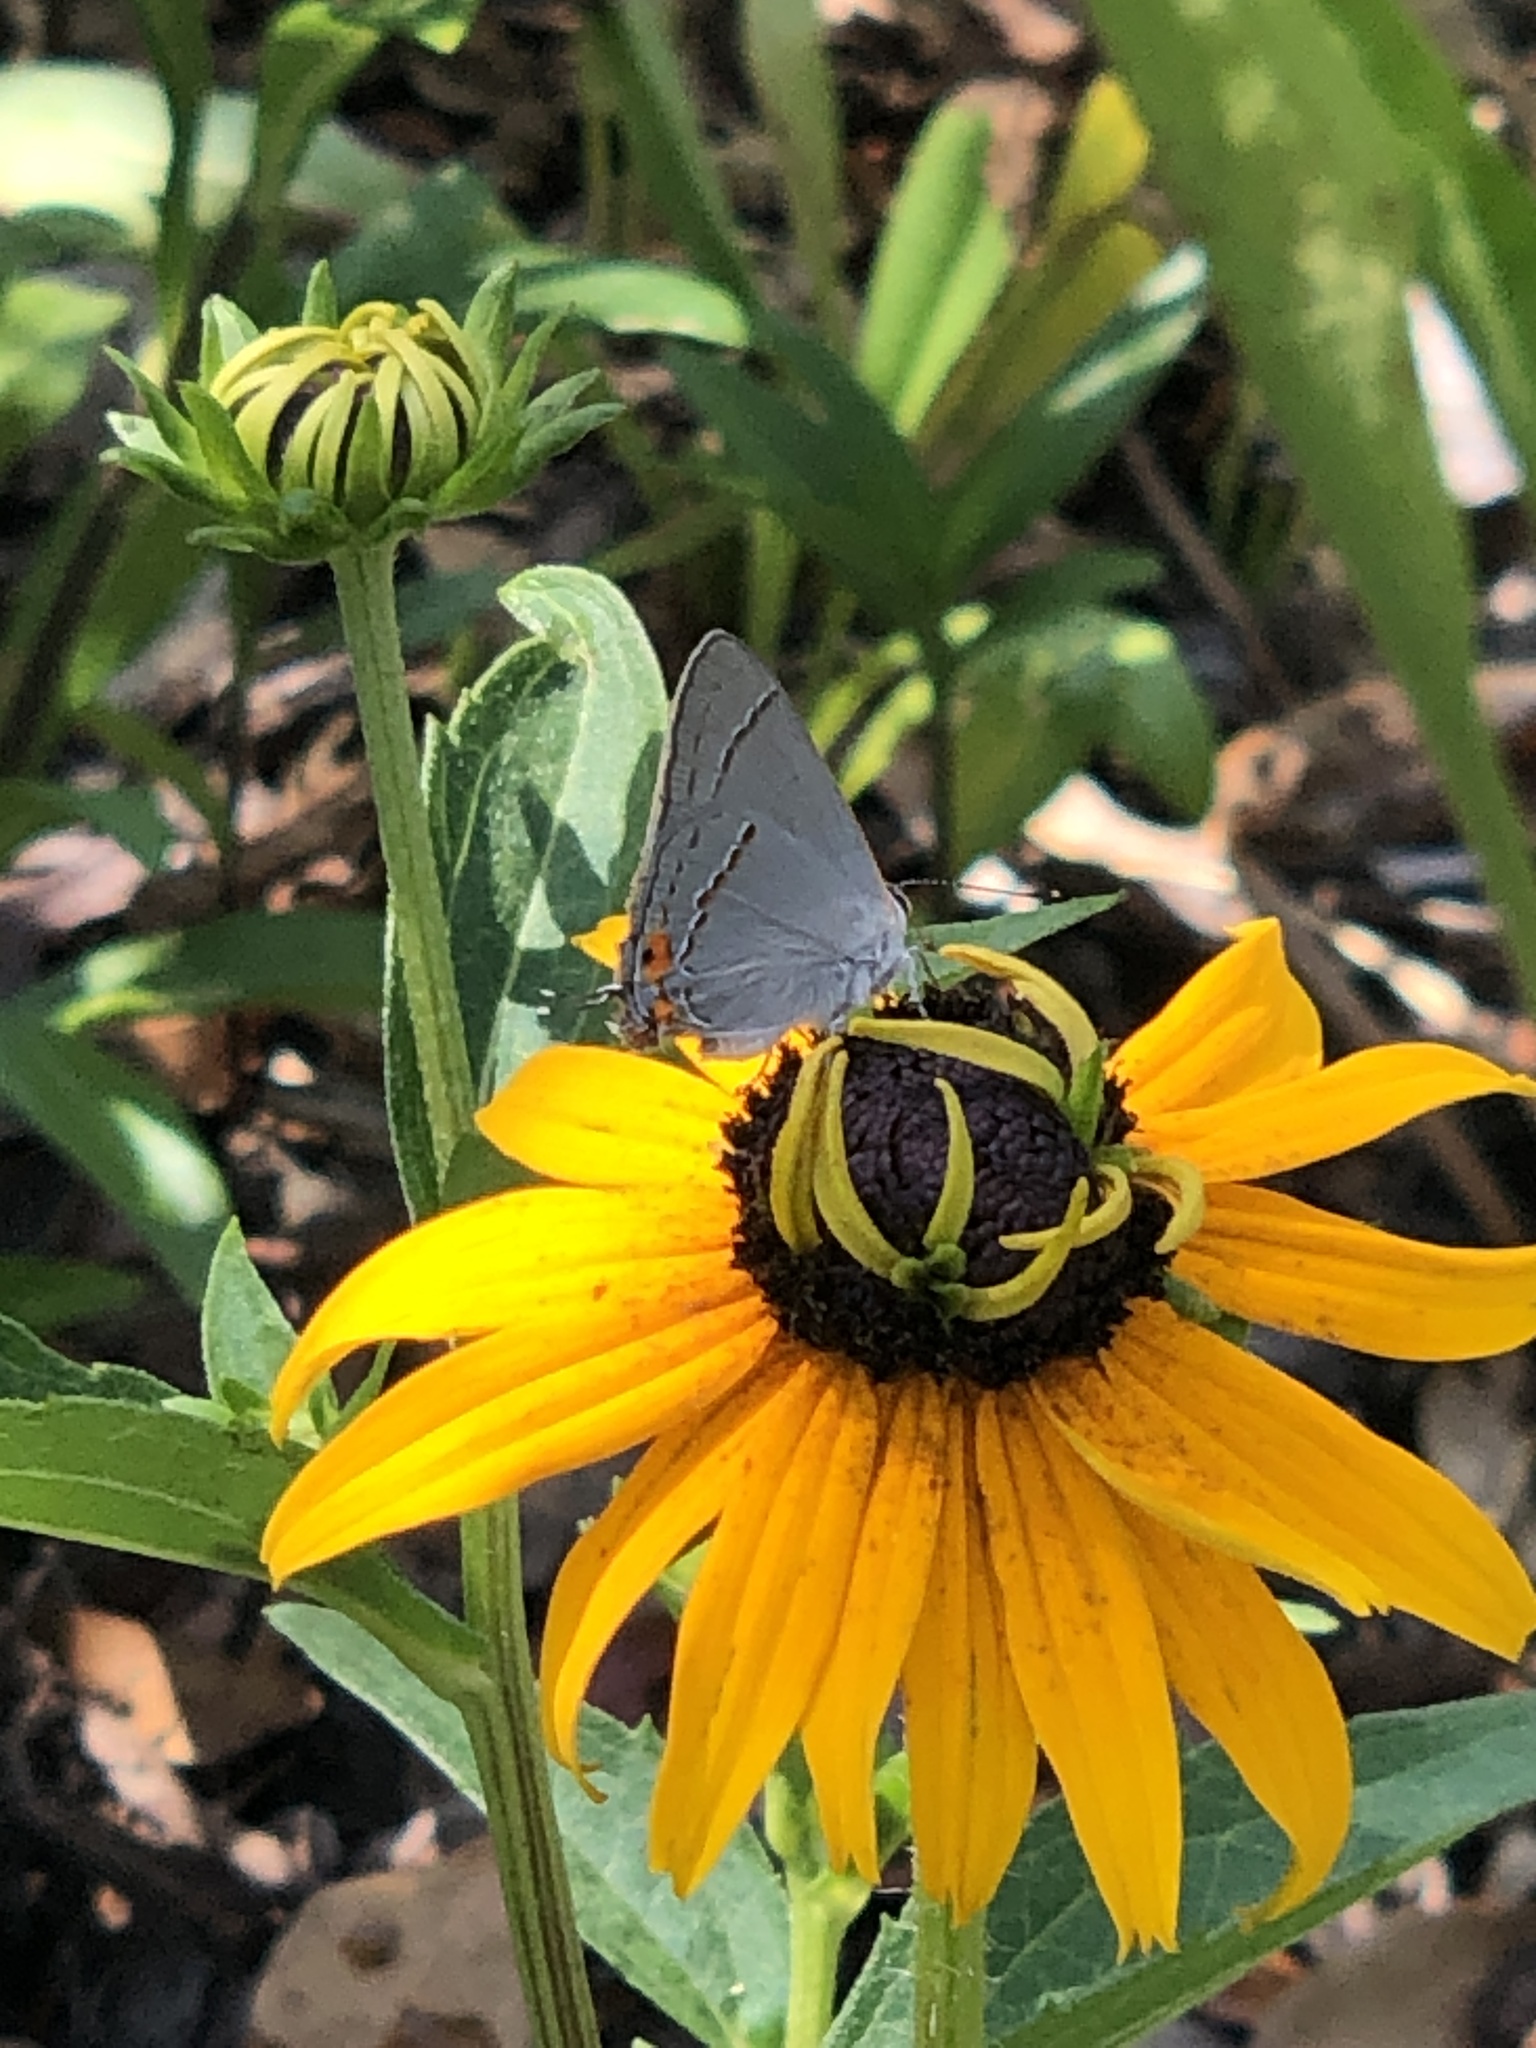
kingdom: Animalia
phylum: Arthropoda
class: Insecta
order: Lepidoptera
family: Lycaenidae
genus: Strymon
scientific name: Strymon melinus
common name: Gray hairstreak
